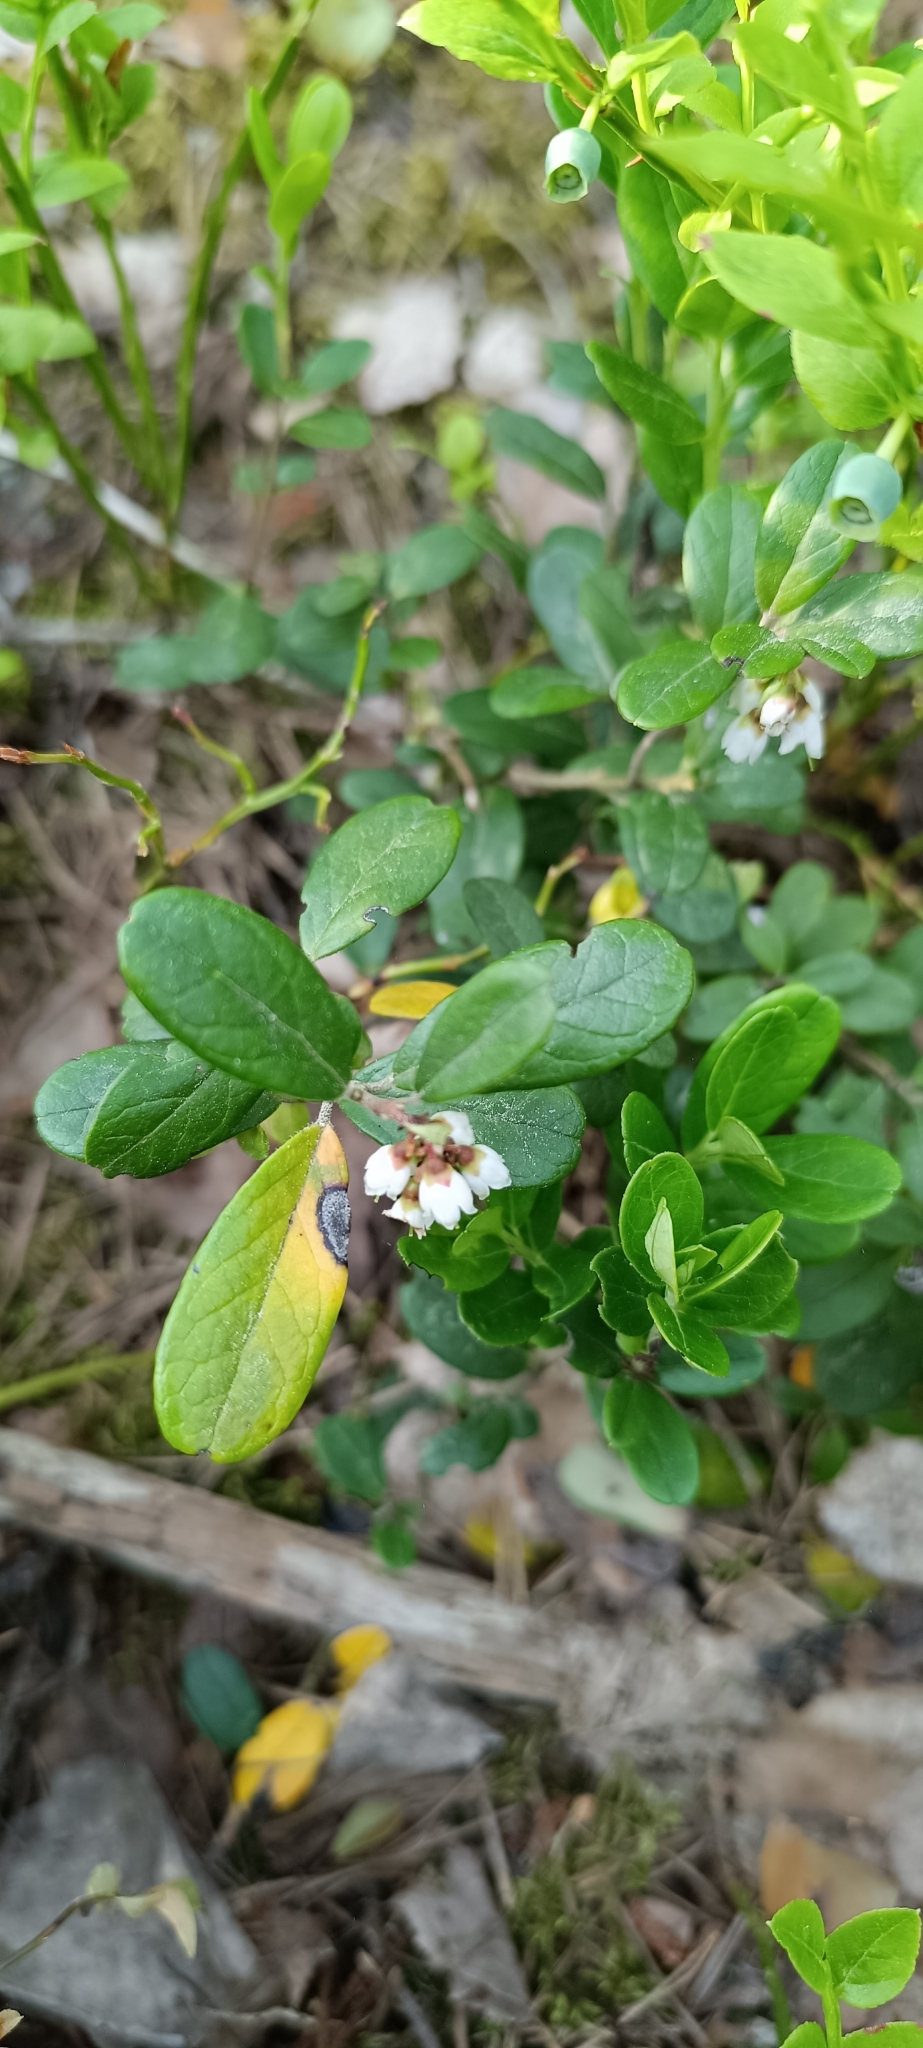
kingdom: Plantae
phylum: Tracheophyta
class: Magnoliopsida
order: Ericales
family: Ericaceae
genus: Vaccinium
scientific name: Vaccinium vitis-idaea
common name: Cowberry
